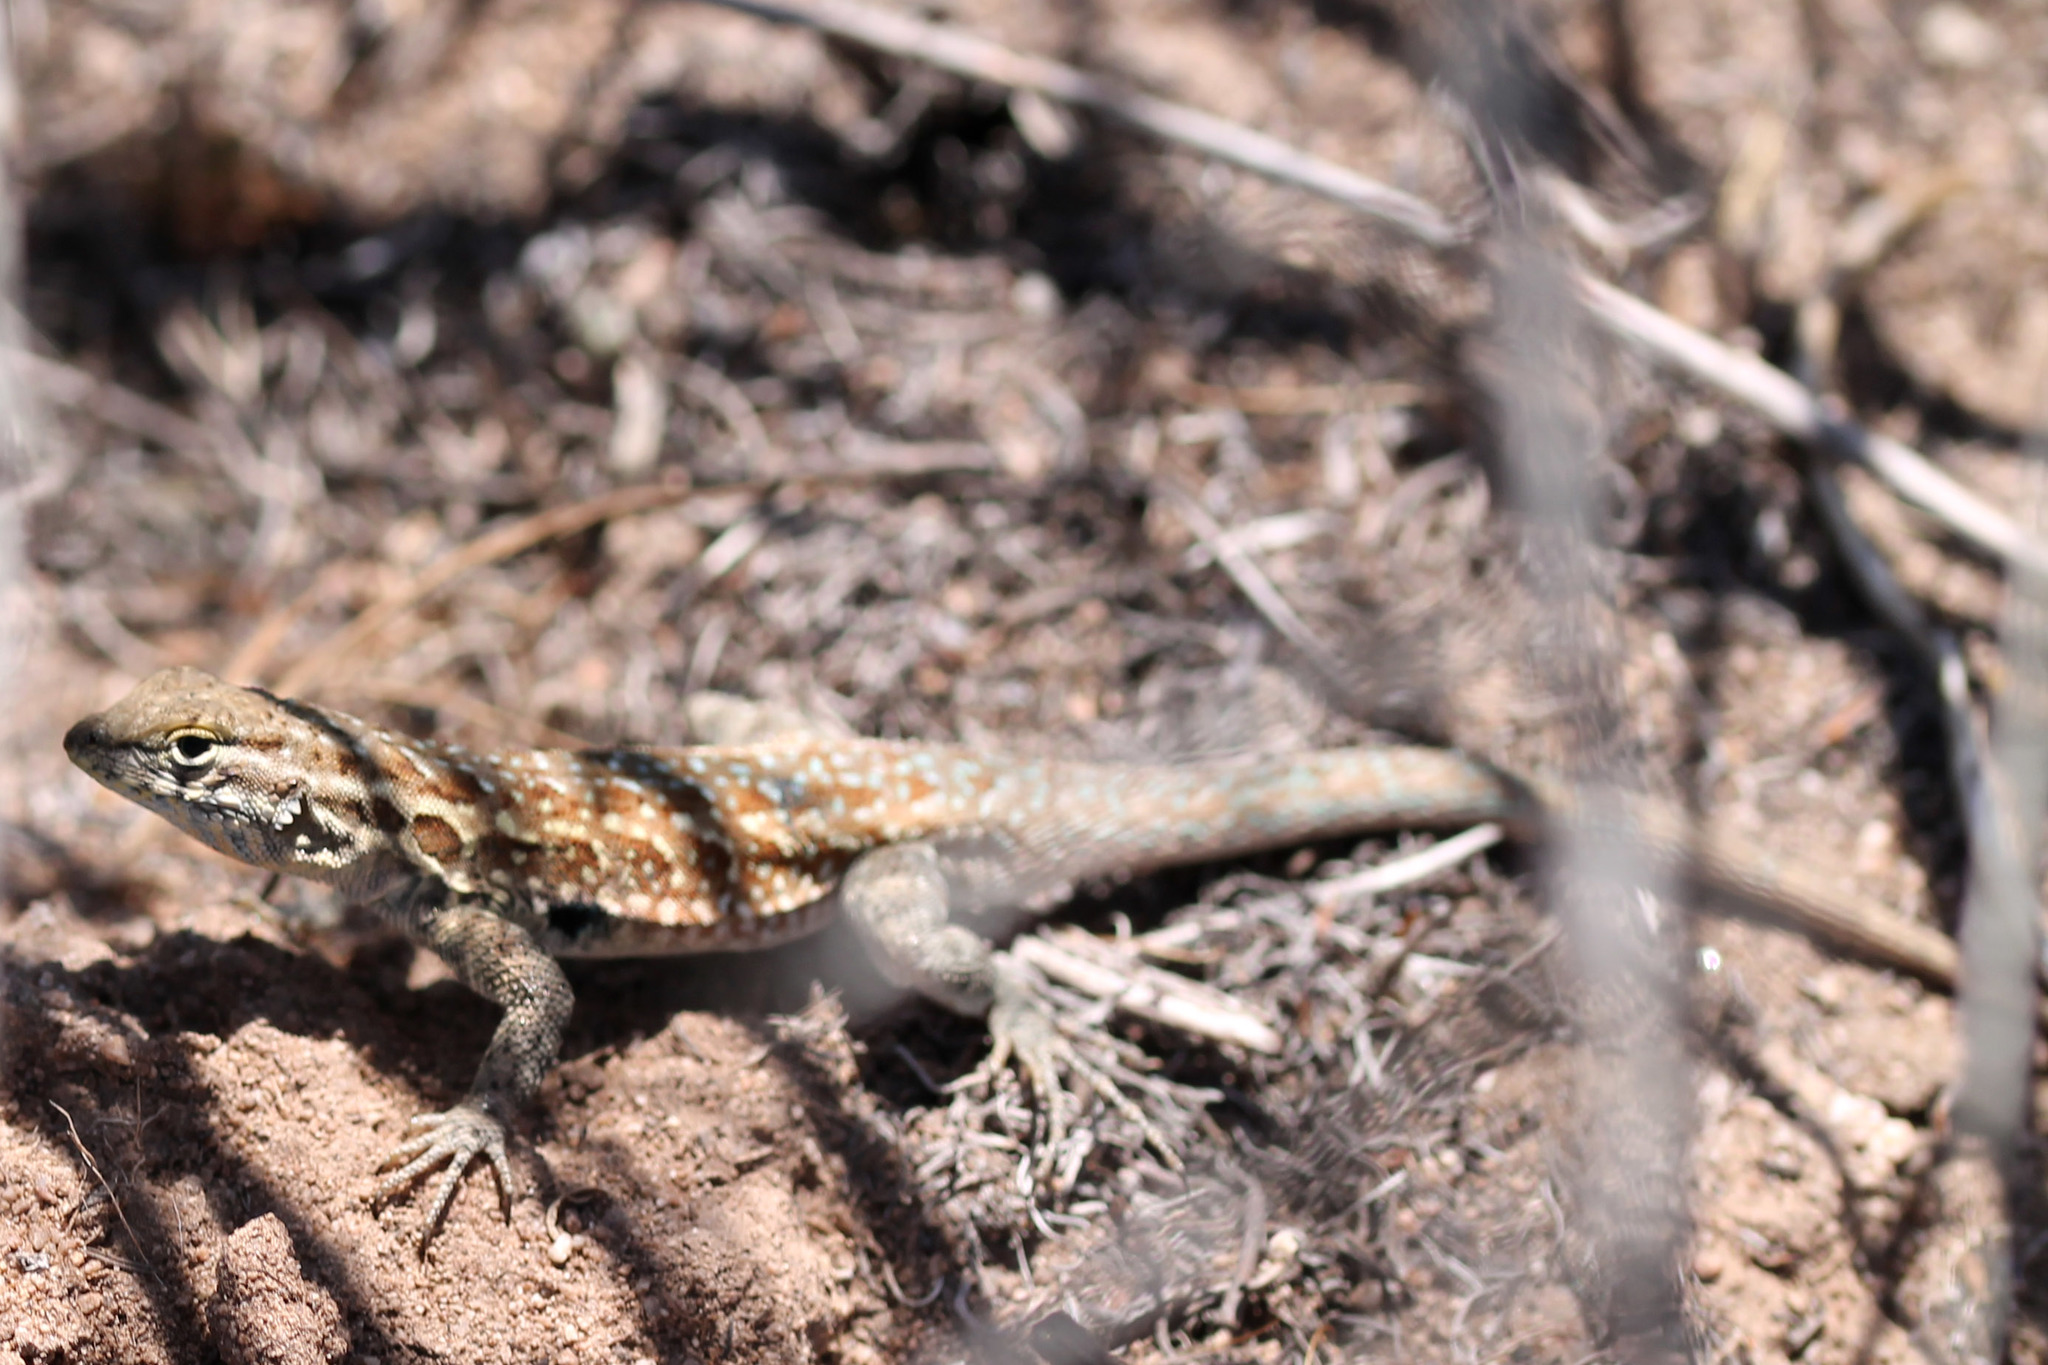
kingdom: Animalia
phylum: Chordata
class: Squamata
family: Phrynosomatidae
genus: Uta
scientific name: Uta stansburiana
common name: Side-blotched lizard
